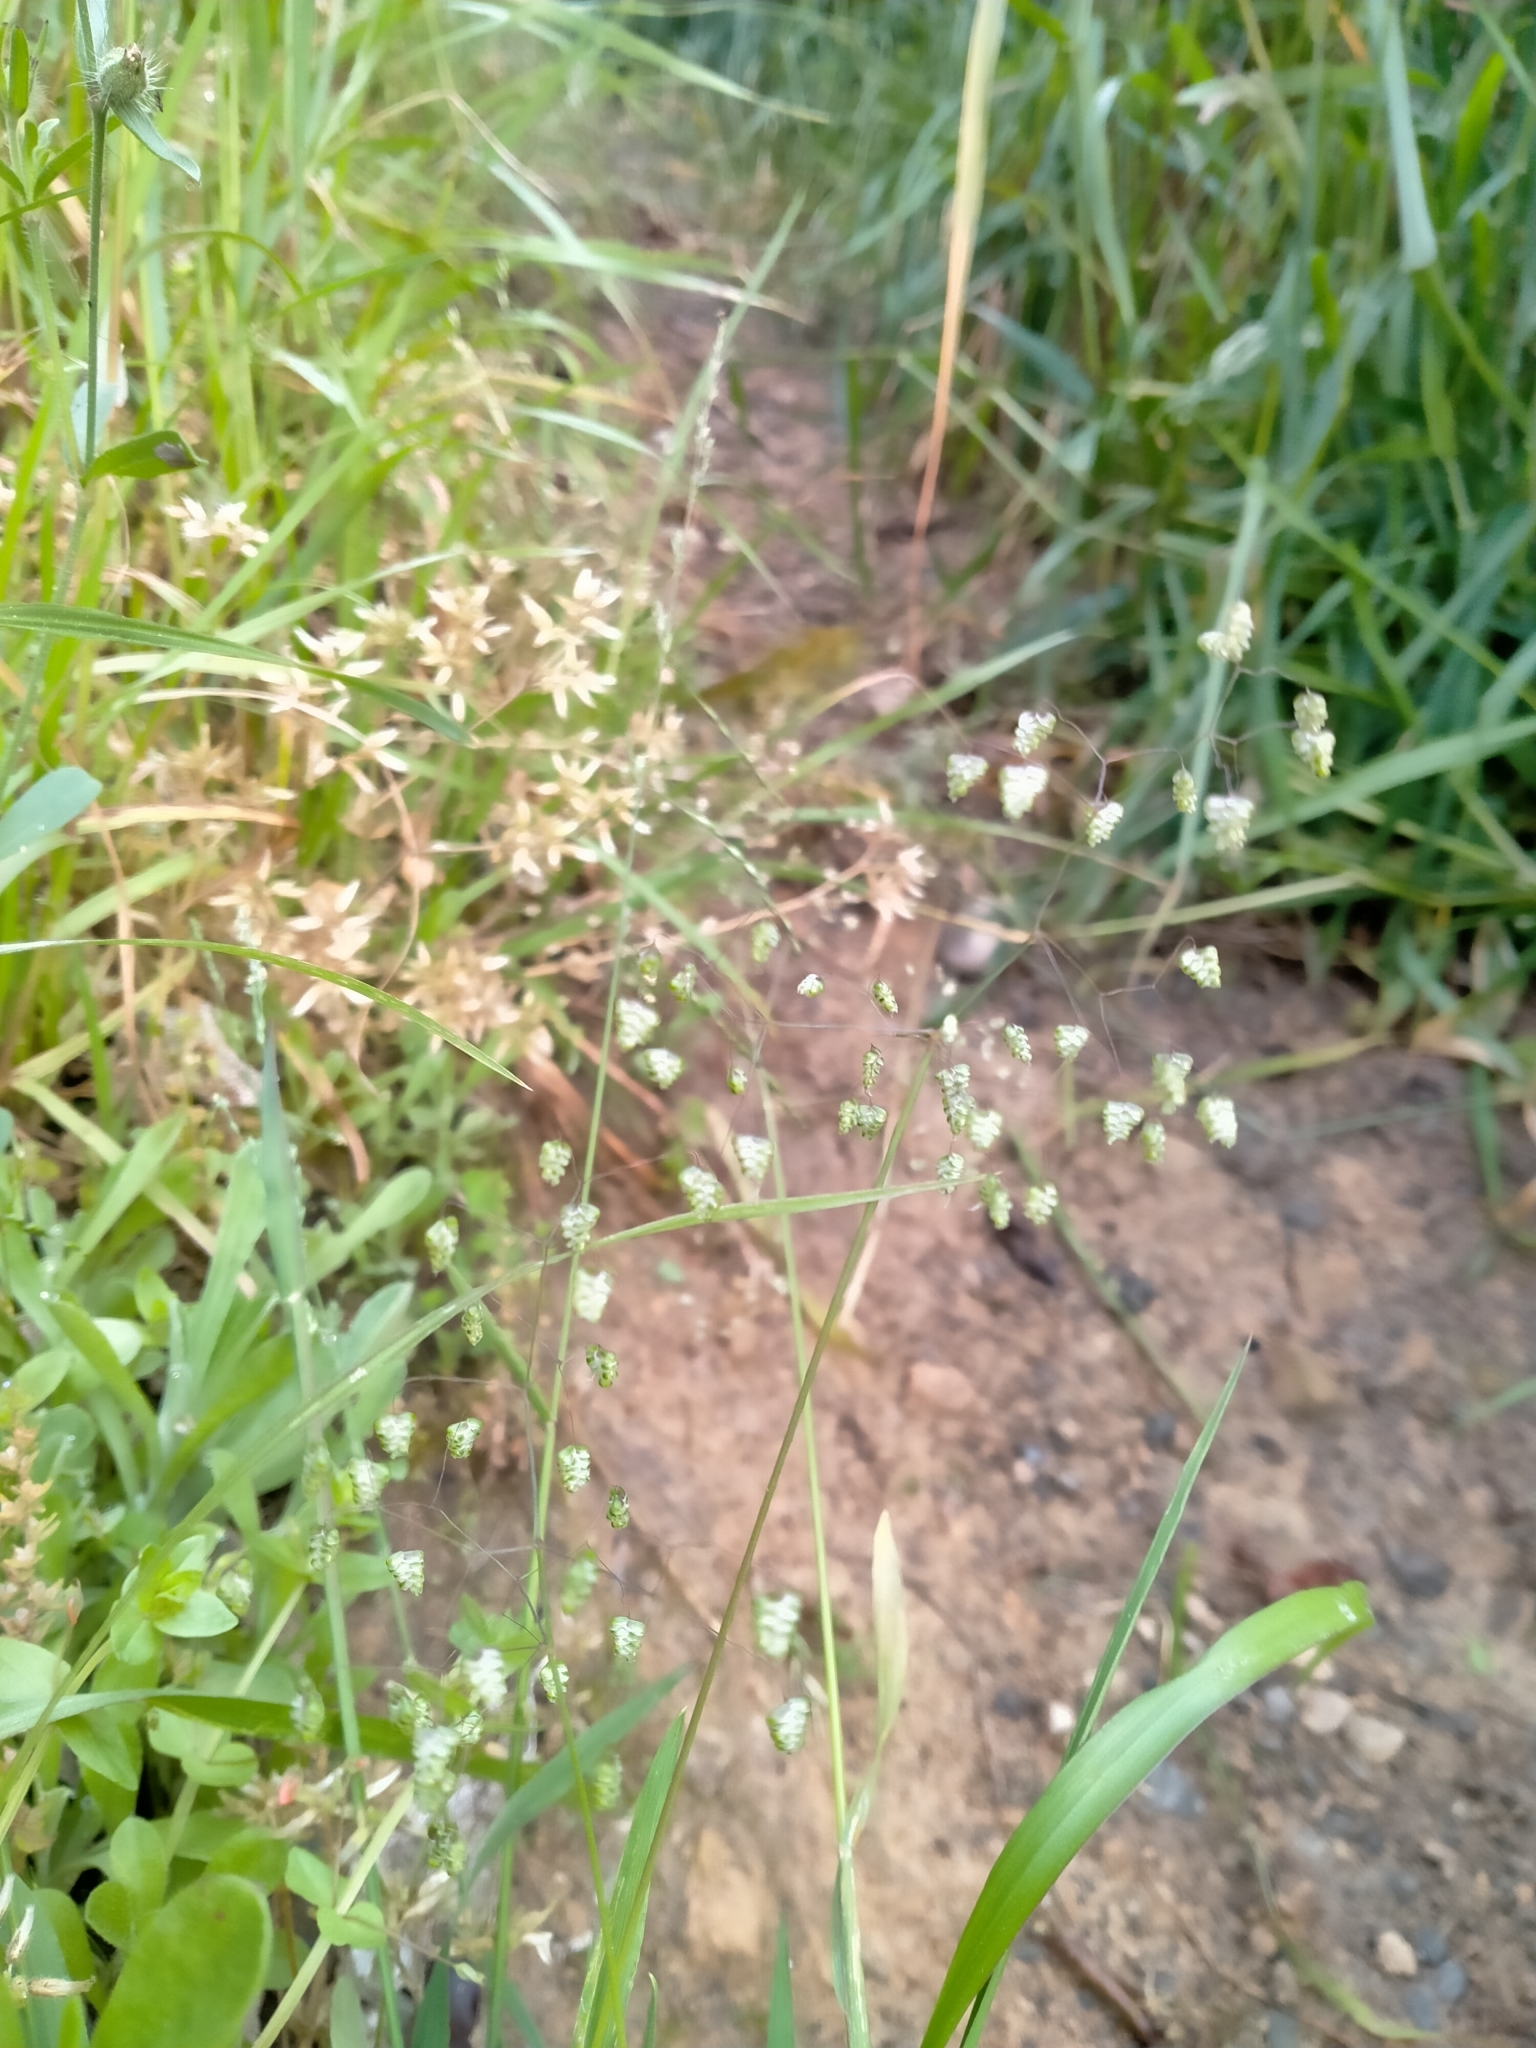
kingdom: Plantae
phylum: Tracheophyta
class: Liliopsida
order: Poales
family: Poaceae
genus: Briza
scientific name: Briza minor
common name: Lesser quaking-grass
